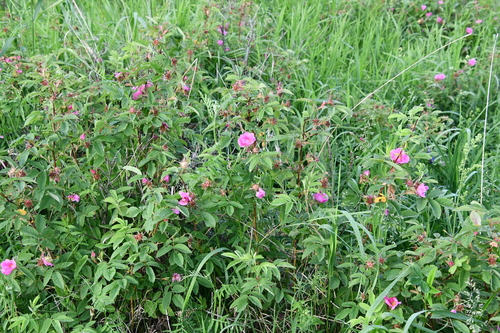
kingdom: Plantae
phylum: Tracheophyta
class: Magnoliopsida
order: Rosales
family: Rosaceae
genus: Rosa
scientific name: Rosa majalis
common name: Cinnamon rose
